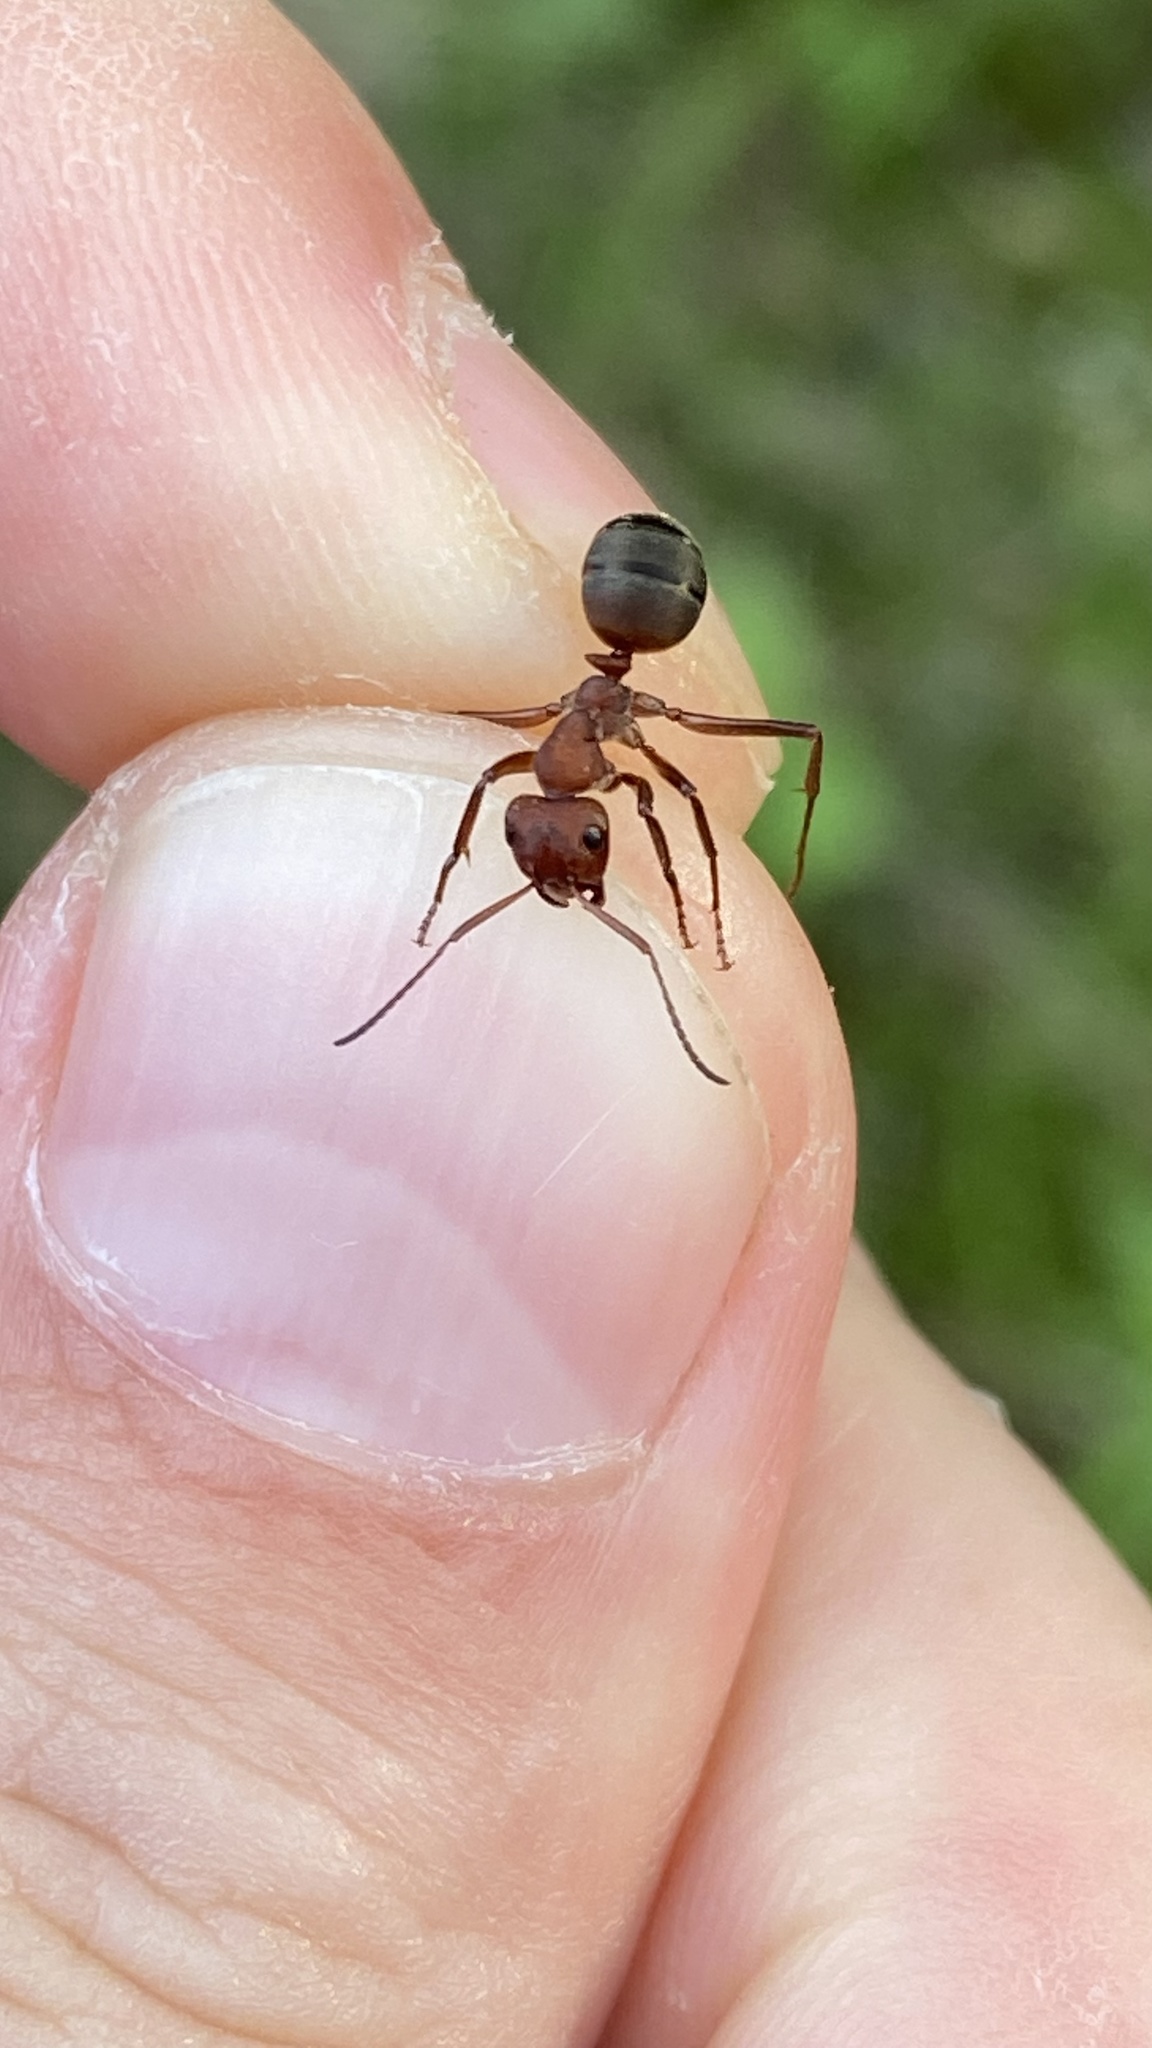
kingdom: Animalia
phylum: Arthropoda
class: Insecta
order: Hymenoptera
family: Formicidae
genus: Formica
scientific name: Formica truncorum
